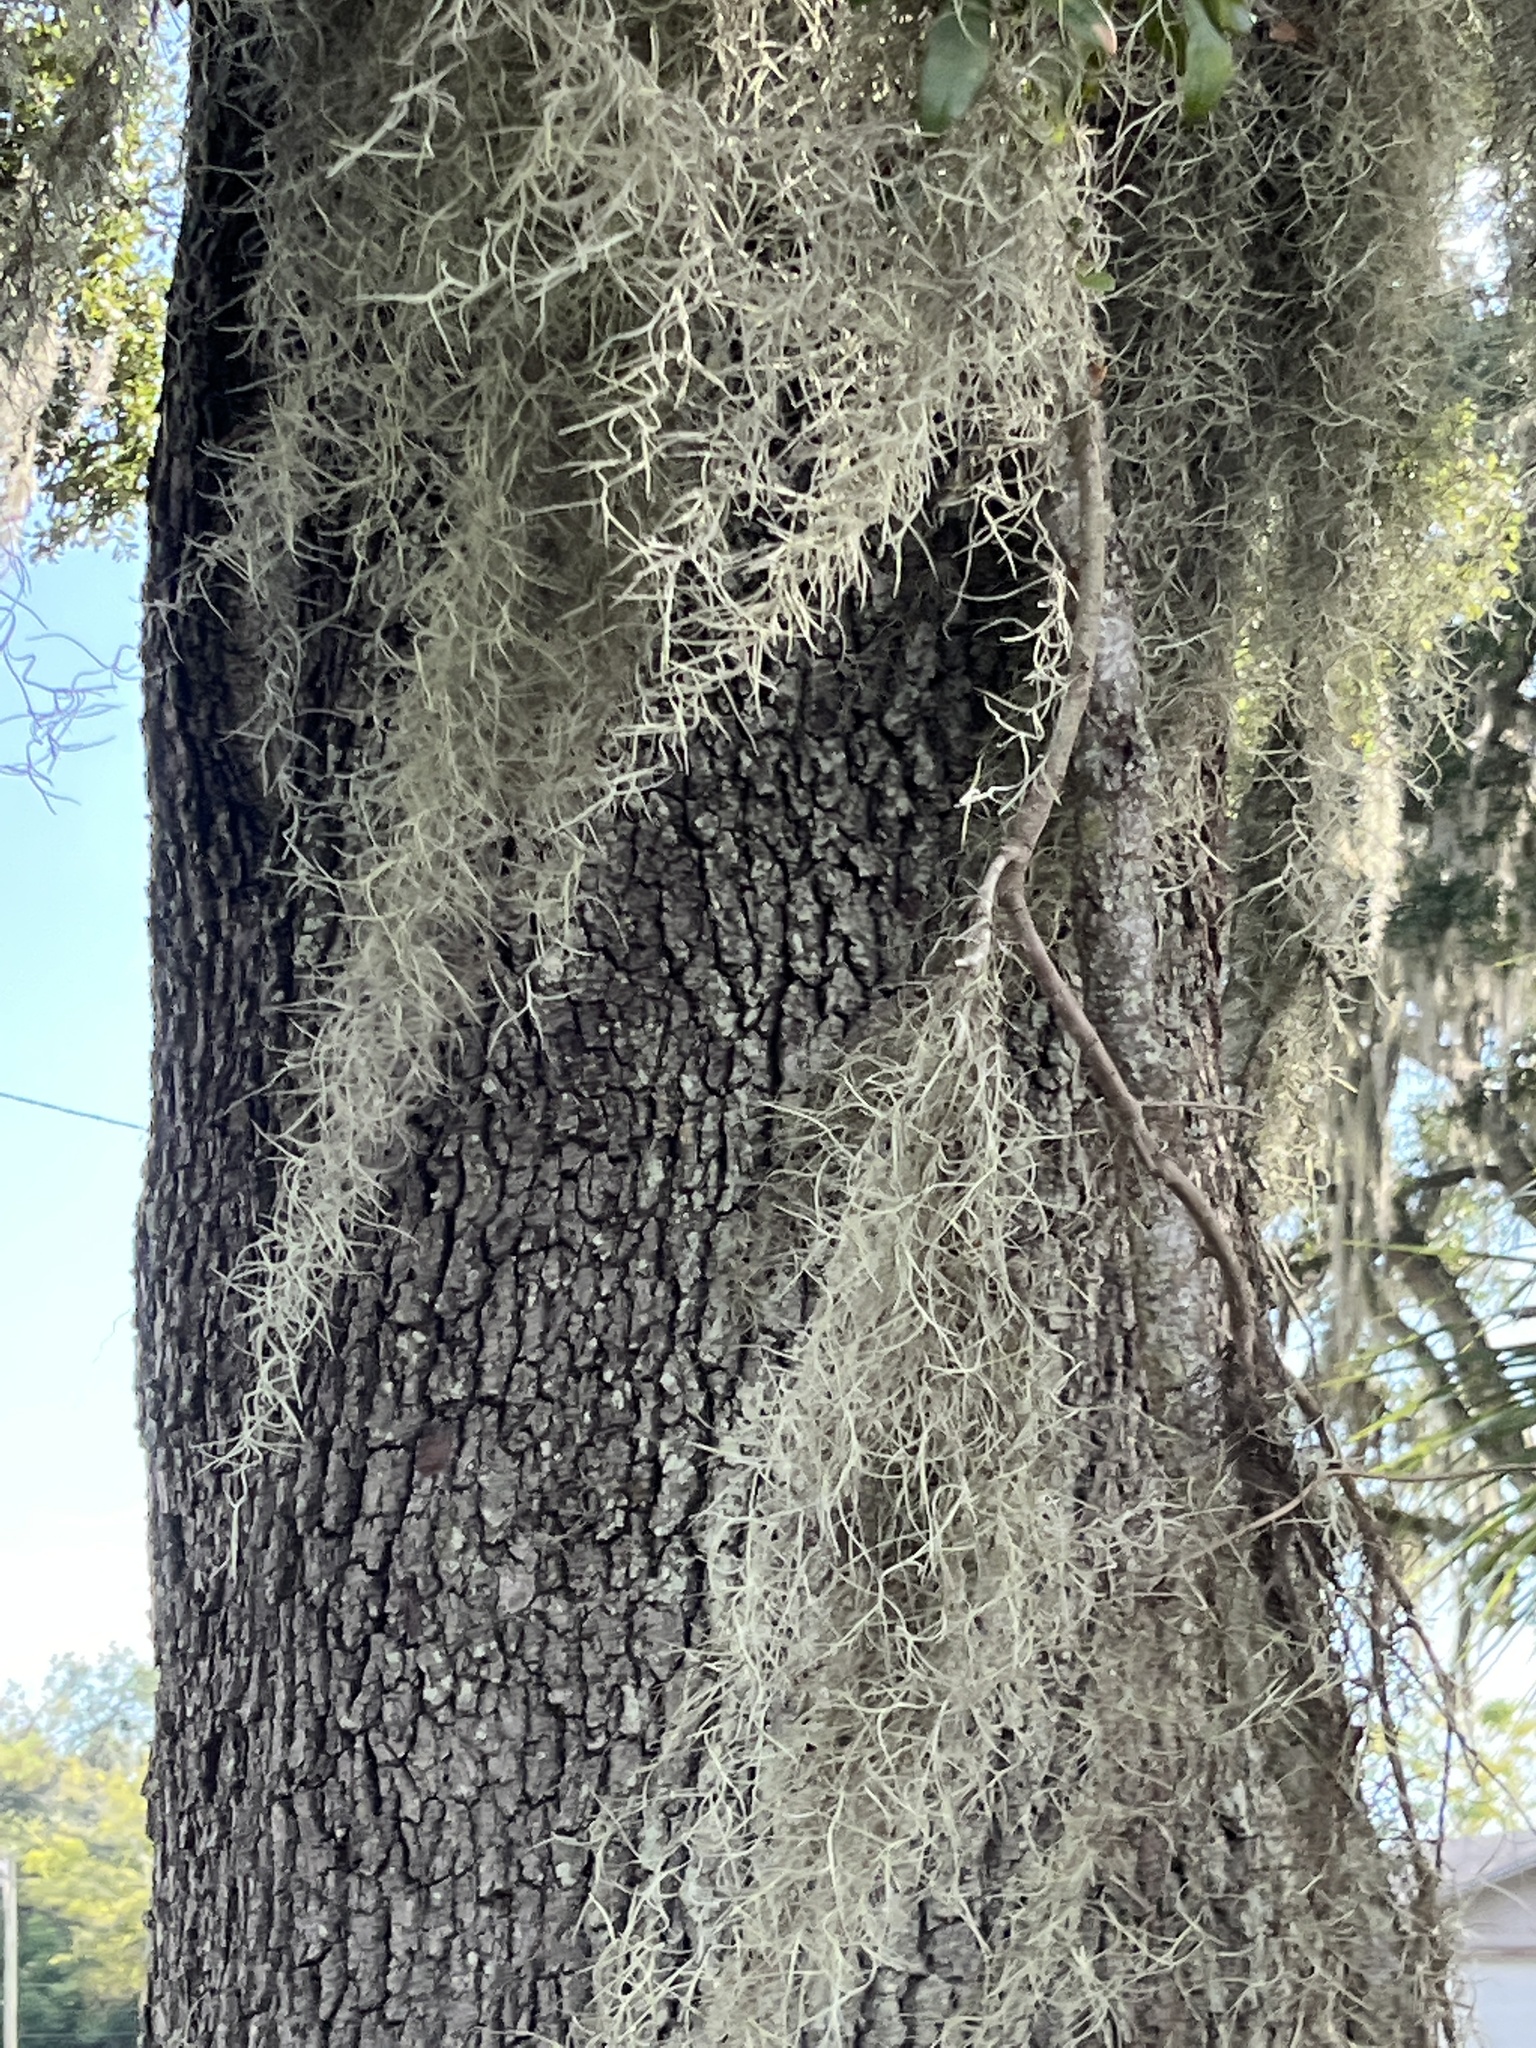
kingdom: Plantae
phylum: Tracheophyta
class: Liliopsida
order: Poales
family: Bromeliaceae
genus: Tillandsia
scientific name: Tillandsia usneoides
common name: Spanish moss
